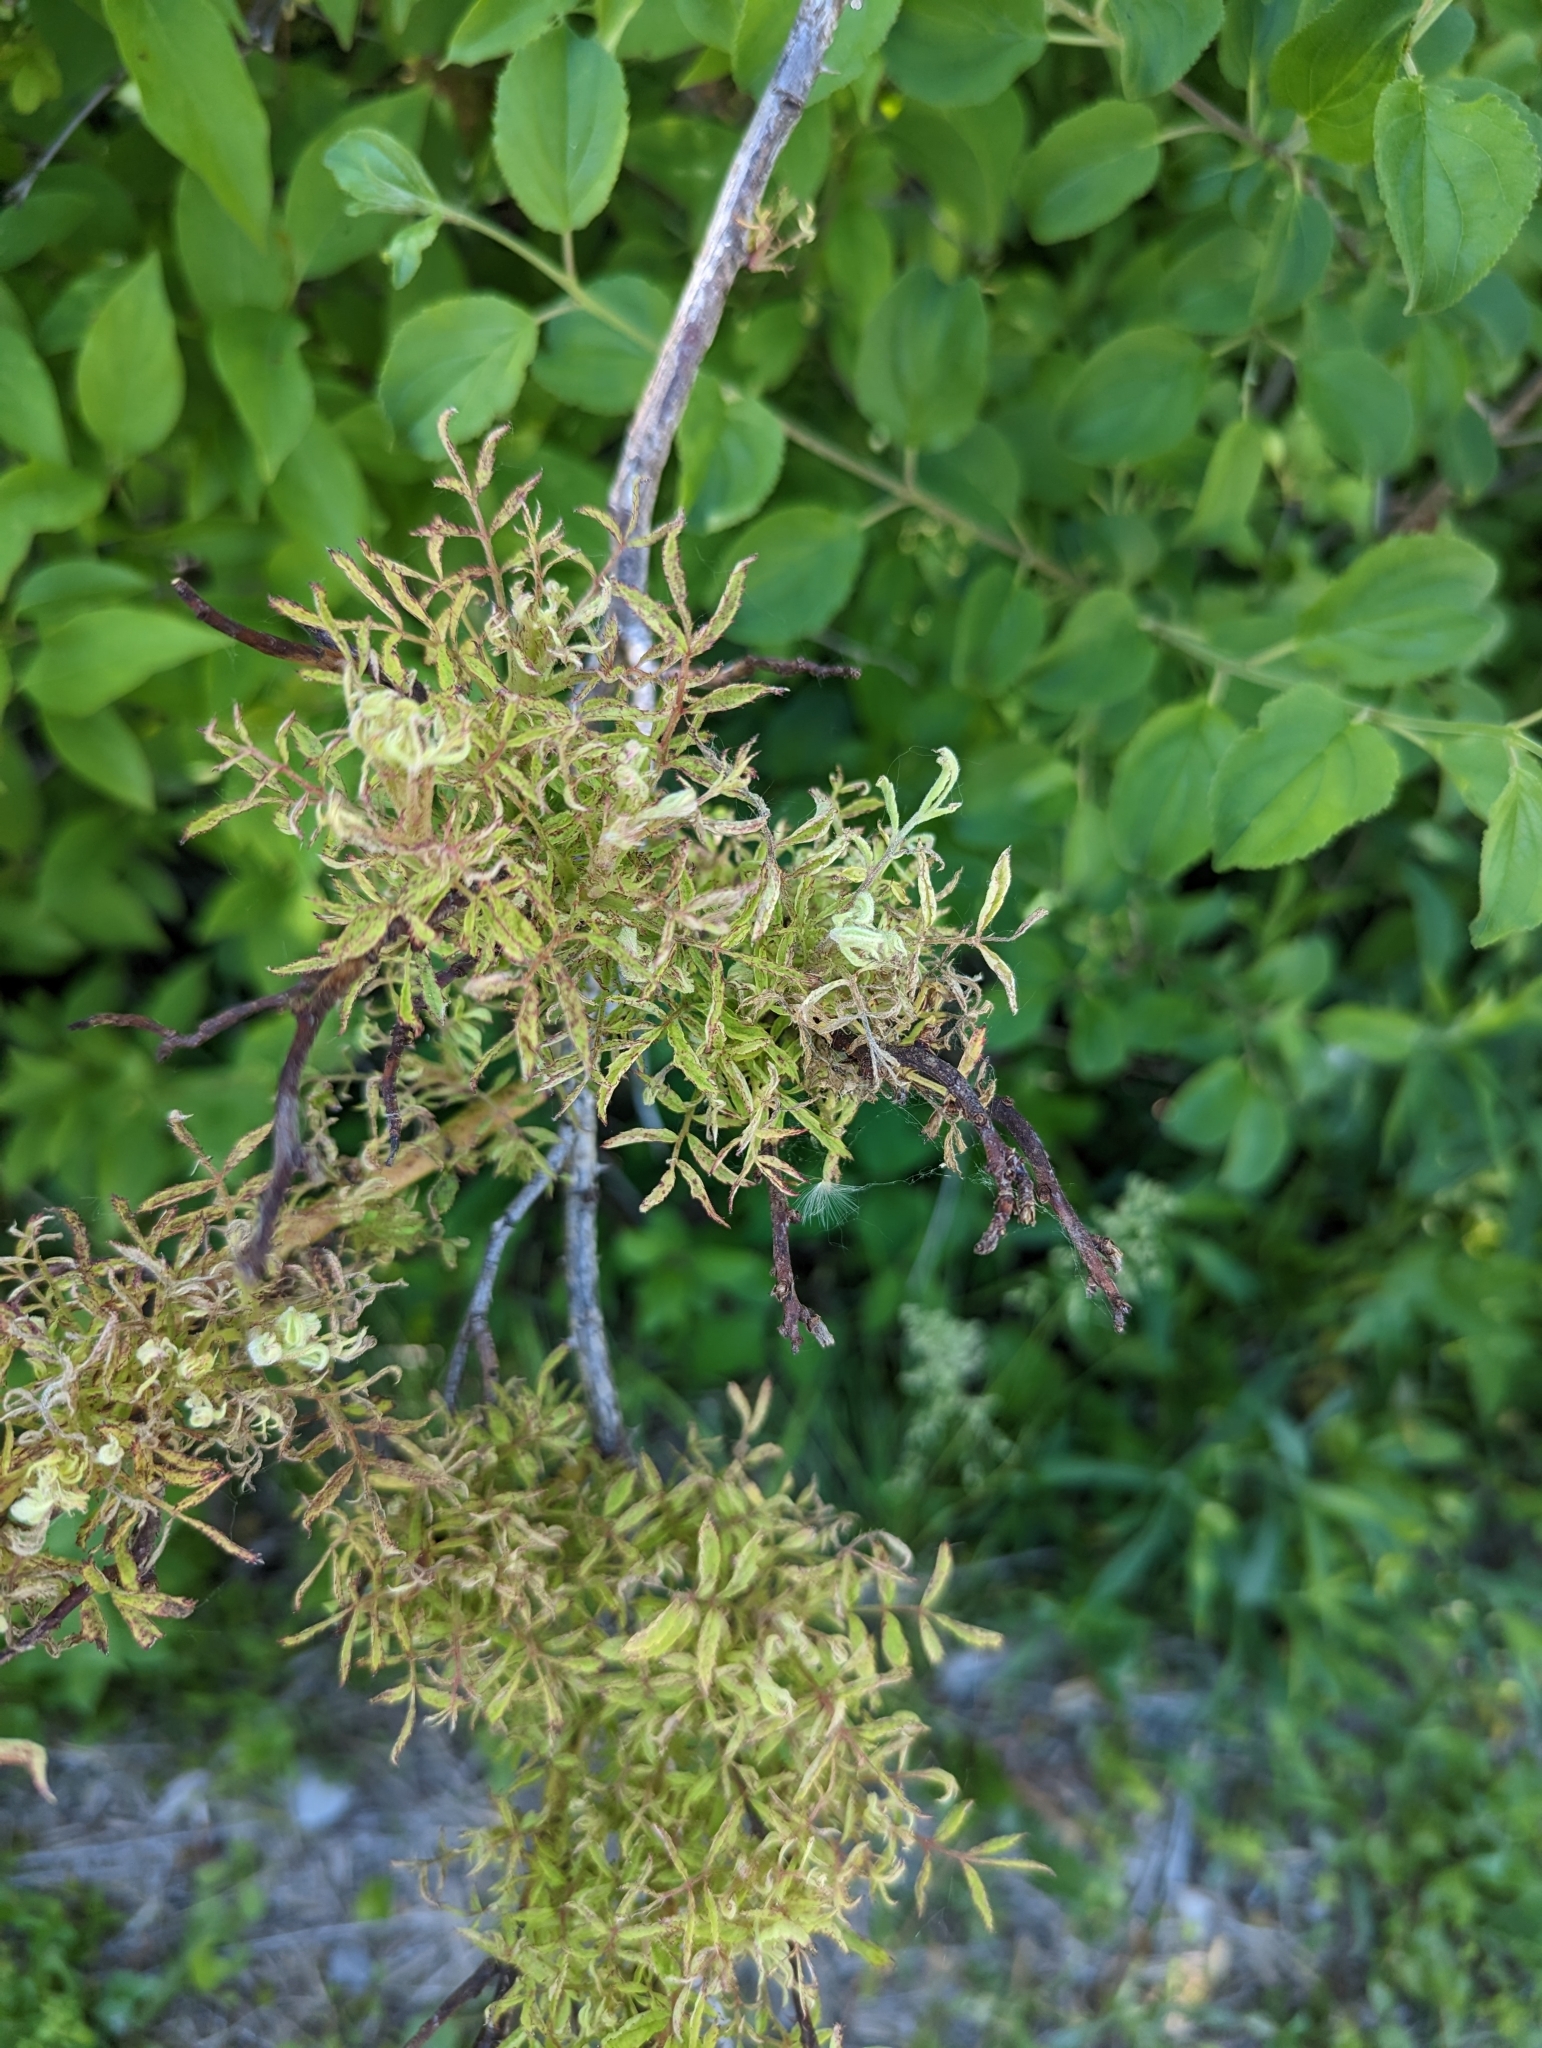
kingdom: Viruses
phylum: Negarnaviricota
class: Ellioviricetes
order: Bunyavirales
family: Fimoviridae
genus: Emaravirus
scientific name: Emaravirus rosae
